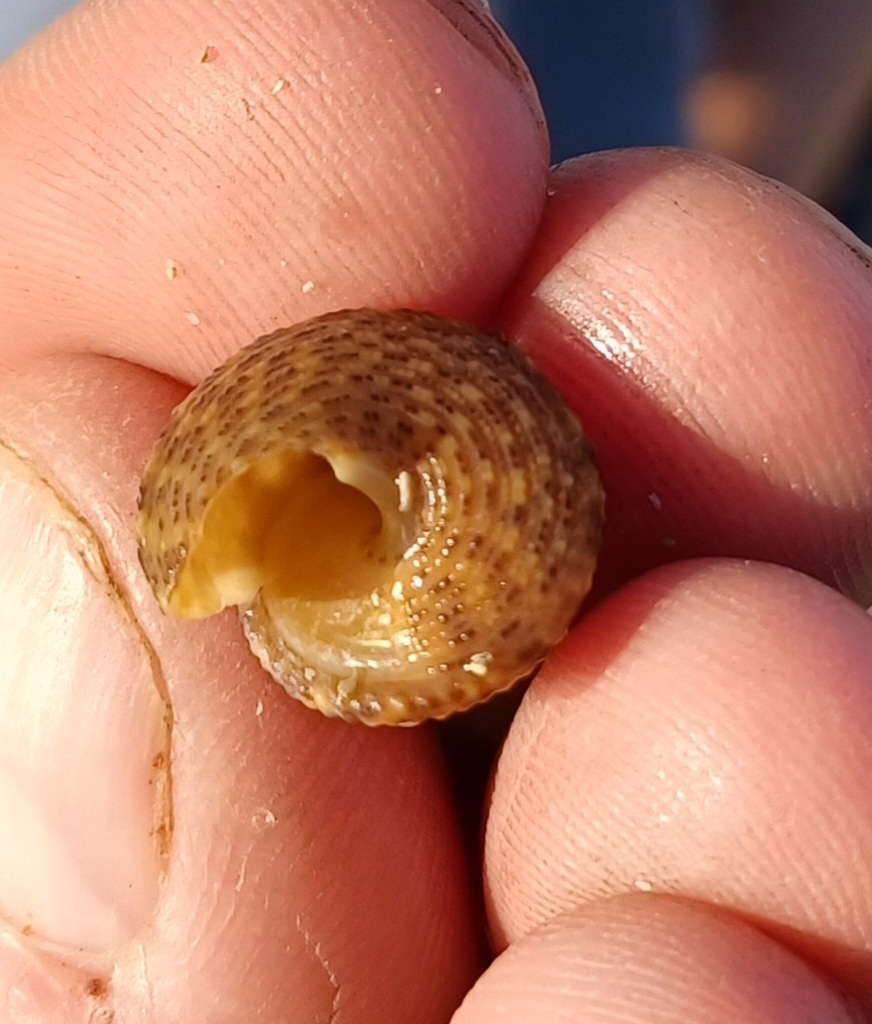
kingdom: Animalia
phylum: Mollusca
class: Gastropoda
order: Trochida
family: Trochidae
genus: Calthalotia
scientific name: Calthalotia fragum
